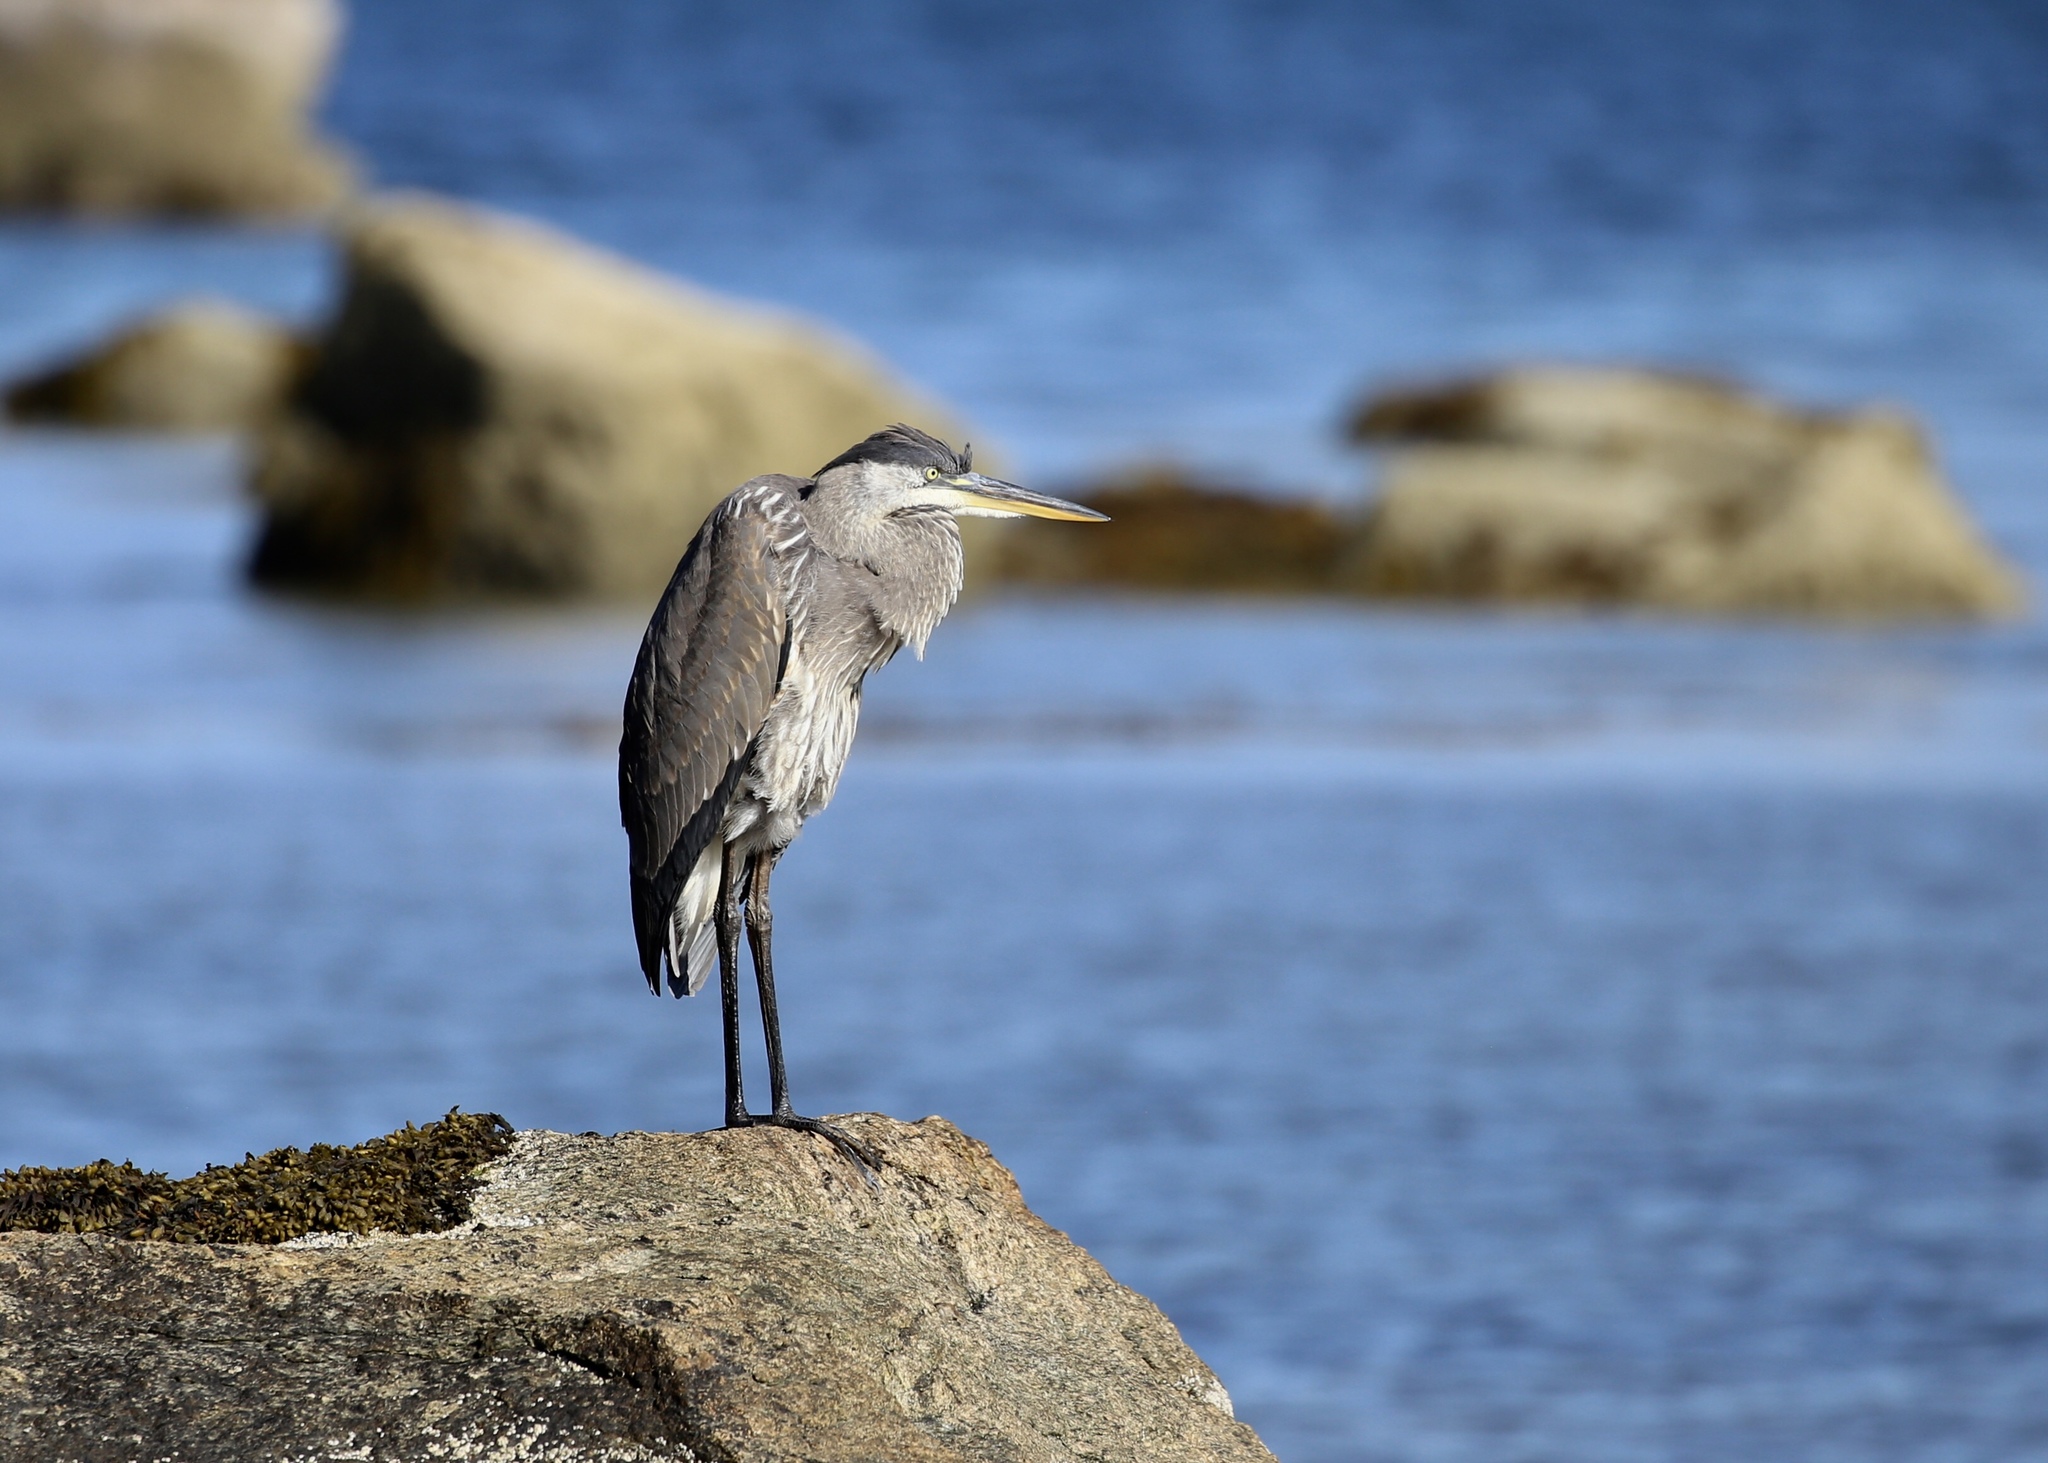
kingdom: Animalia
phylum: Chordata
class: Aves
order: Pelecaniformes
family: Ardeidae
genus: Ardea
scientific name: Ardea herodias
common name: Great blue heron
